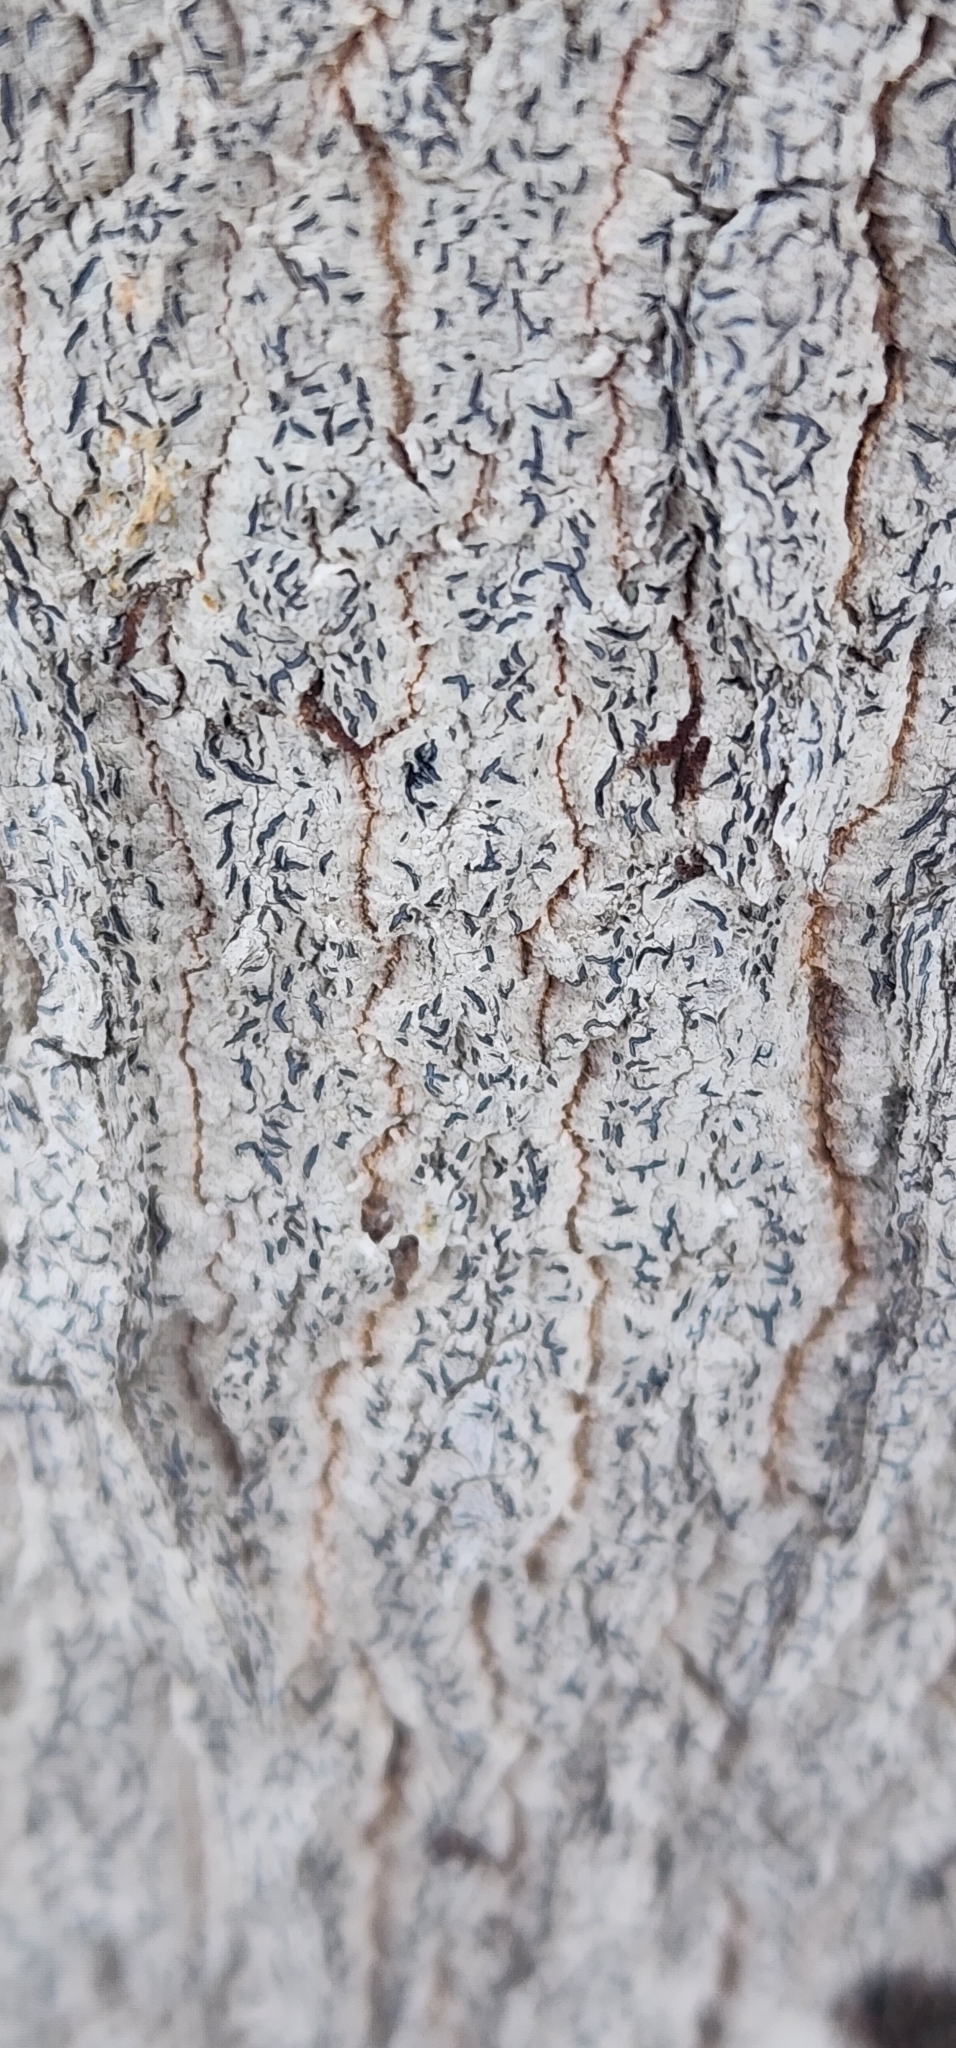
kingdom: Fungi
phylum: Ascomycota
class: Lecanoromycetes
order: Ostropales
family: Graphidaceae
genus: Graphis
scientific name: Graphis scripta
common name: Script lichen
